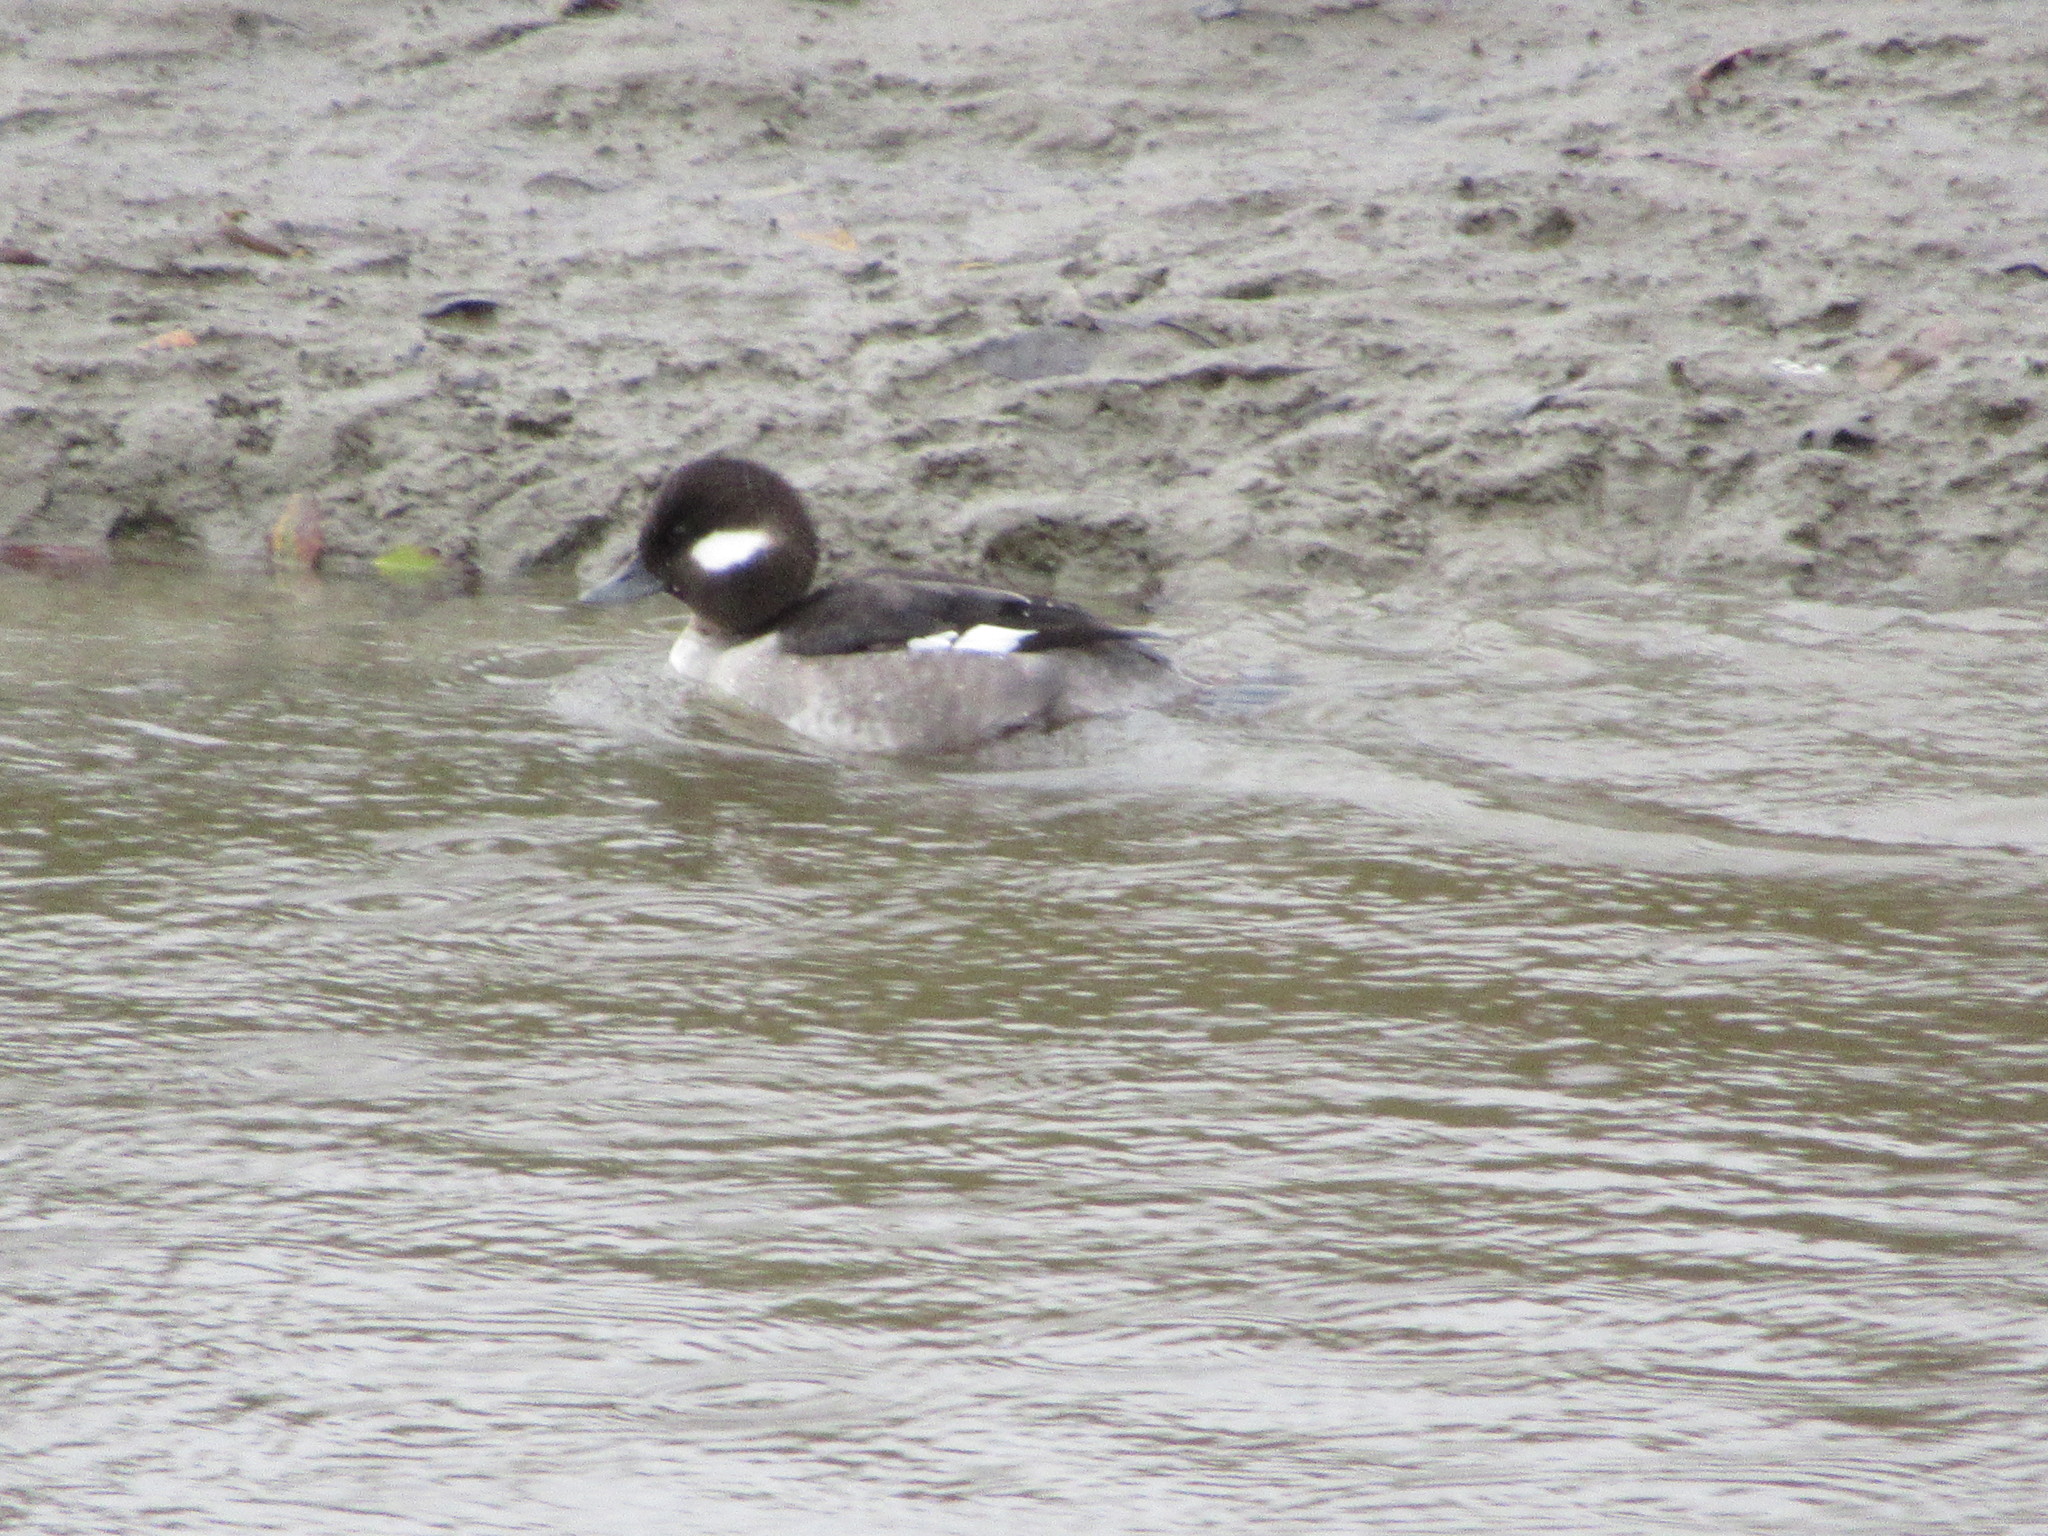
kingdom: Animalia
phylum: Chordata
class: Aves
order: Anseriformes
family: Anatidae
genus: Bucephala
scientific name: Bucephala albeola
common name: Bufflehead
